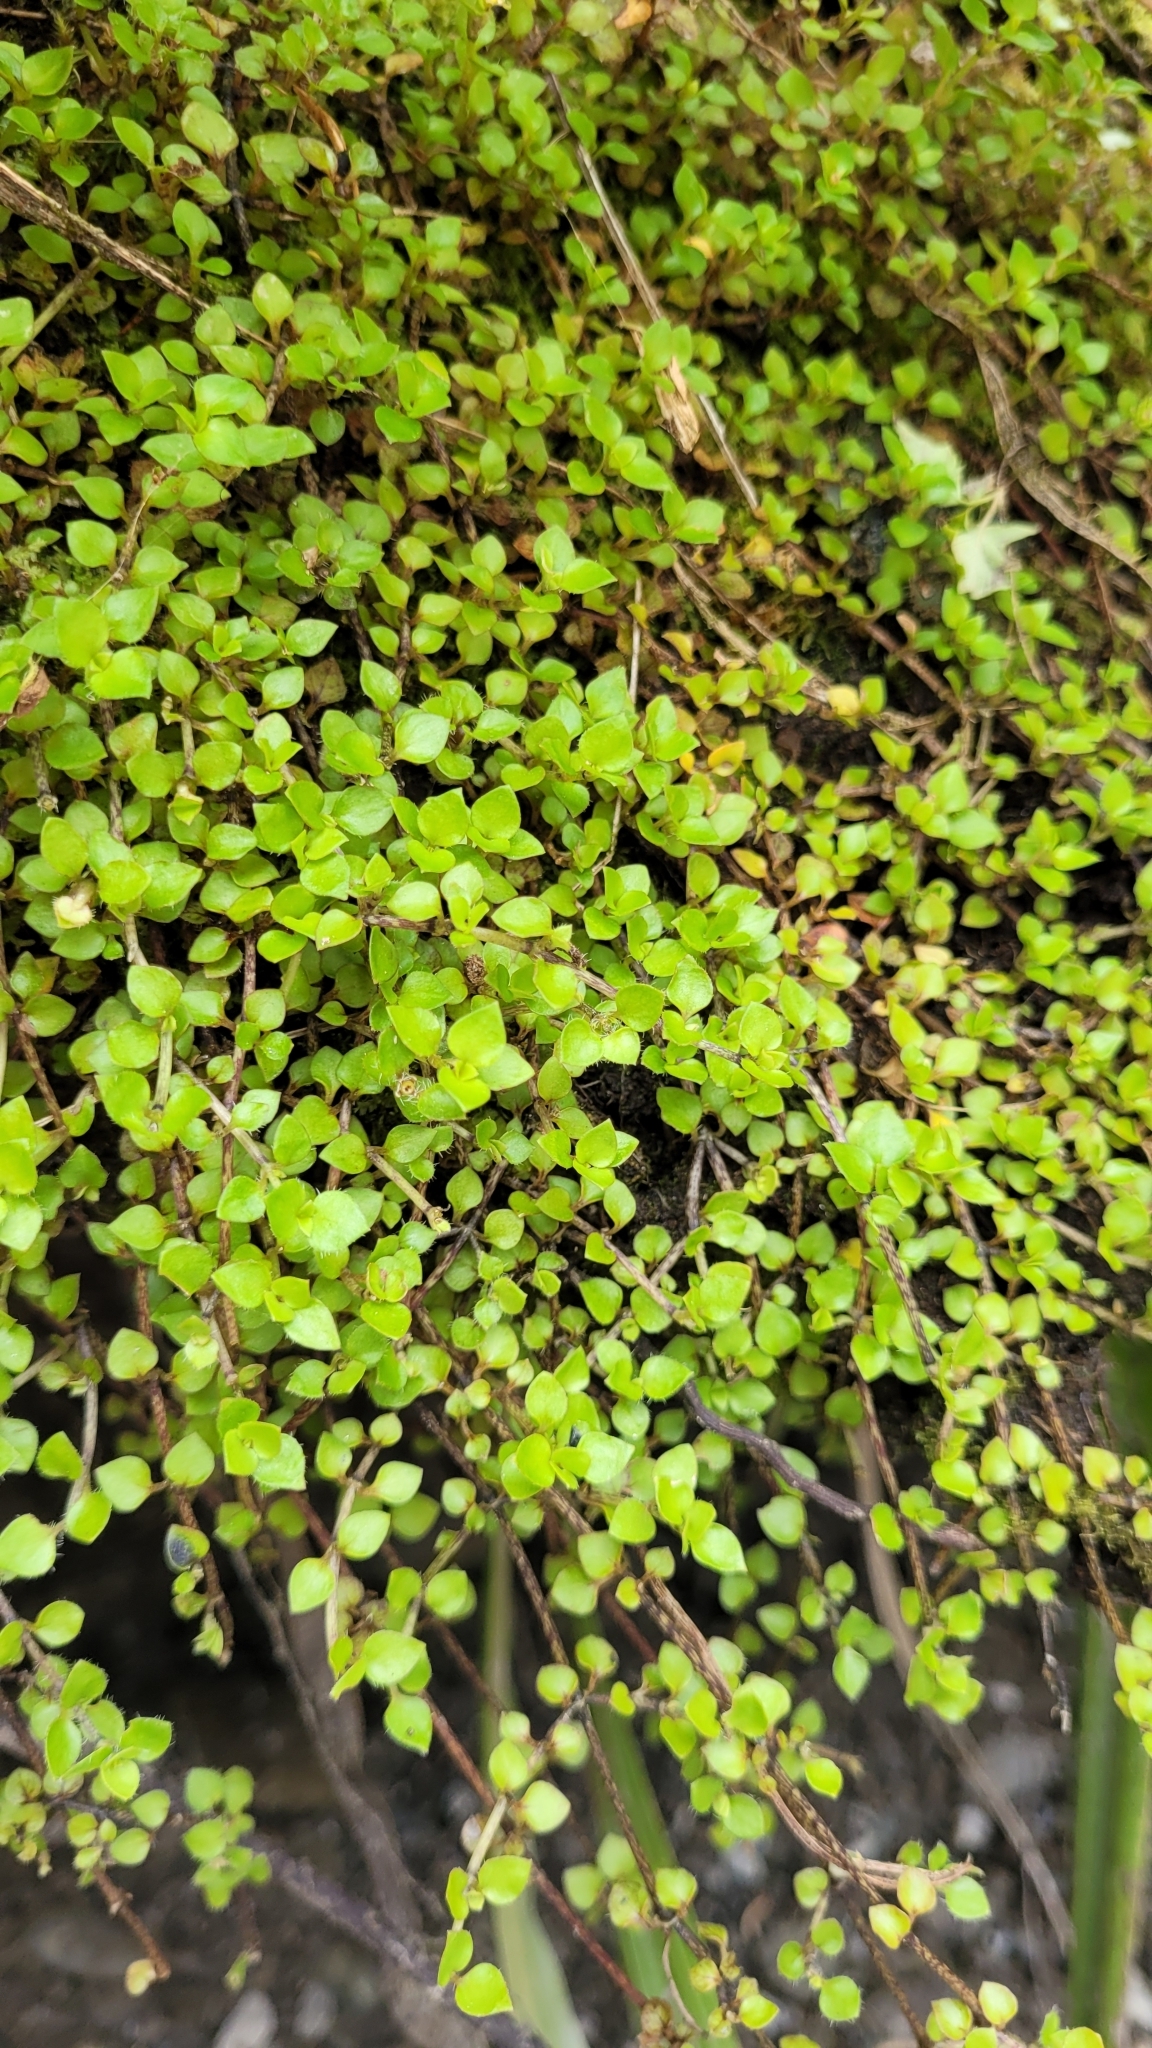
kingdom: Plantae
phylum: Tracheophyta
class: Magnoliopsida
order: Gentianales
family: Rubiaceae
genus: Nertera
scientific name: Nertera granadensis
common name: Beadplant
